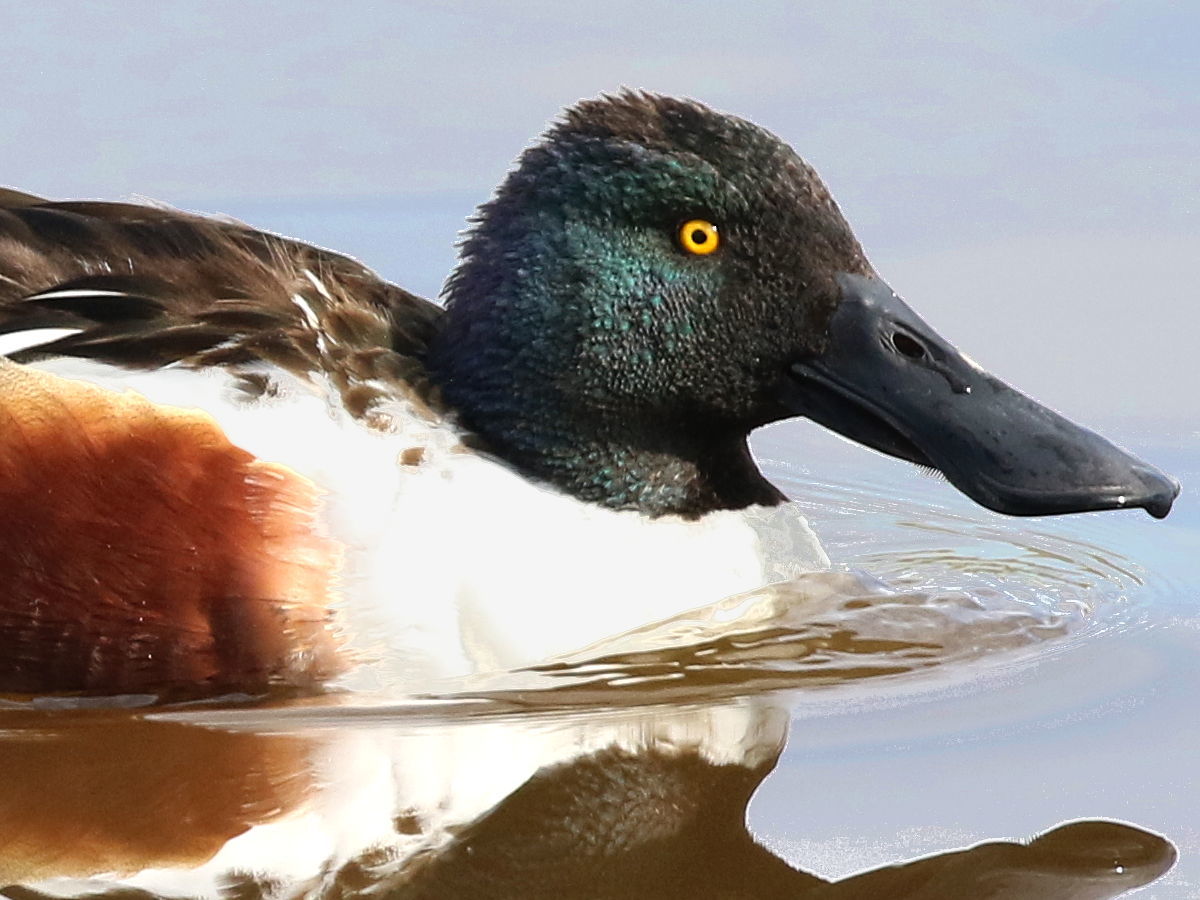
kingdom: Animalia
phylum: Chordata
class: Aves
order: Anseriformes
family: Anatidae
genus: Spatula
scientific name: Spatula clypeata
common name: Northern shoveler
